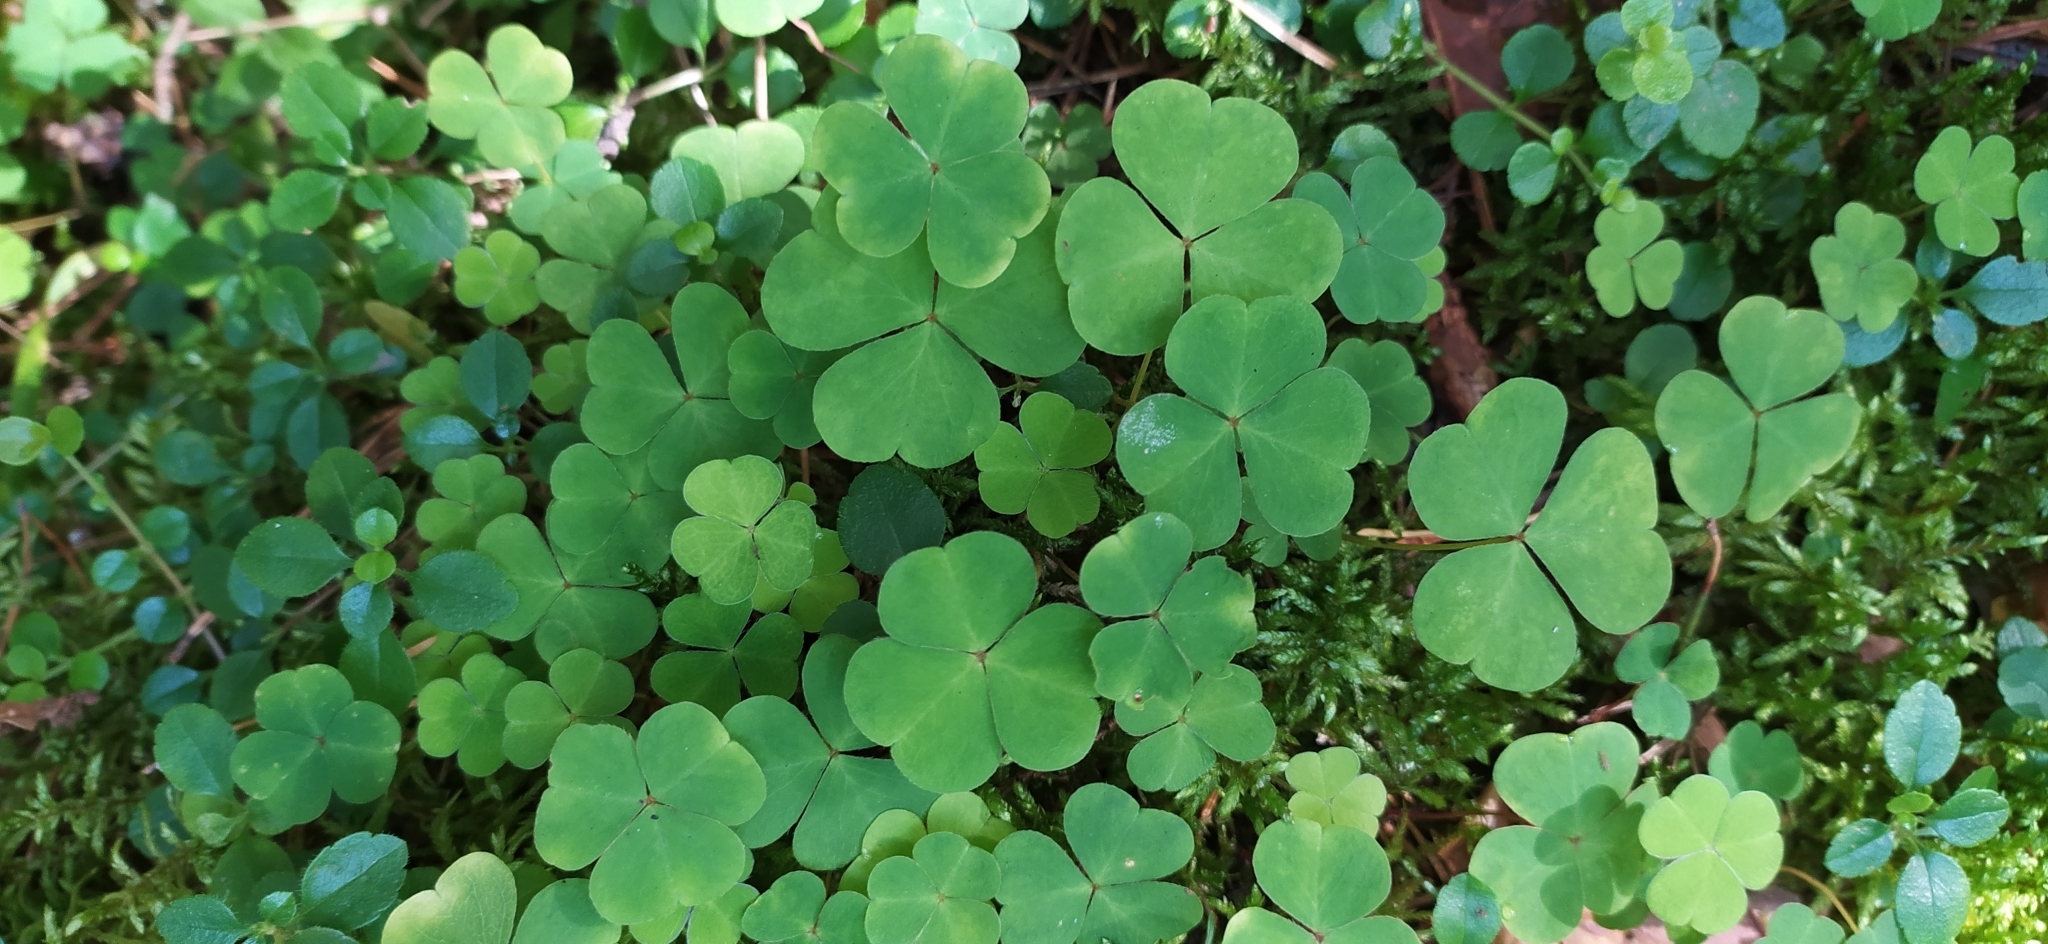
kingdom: Plantae
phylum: Tracheophyta
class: Magnoliopsida
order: Oxalidales
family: Oxalidaceae
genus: Oxalis
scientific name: Oxalis acetosella
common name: Wood-sorrel
